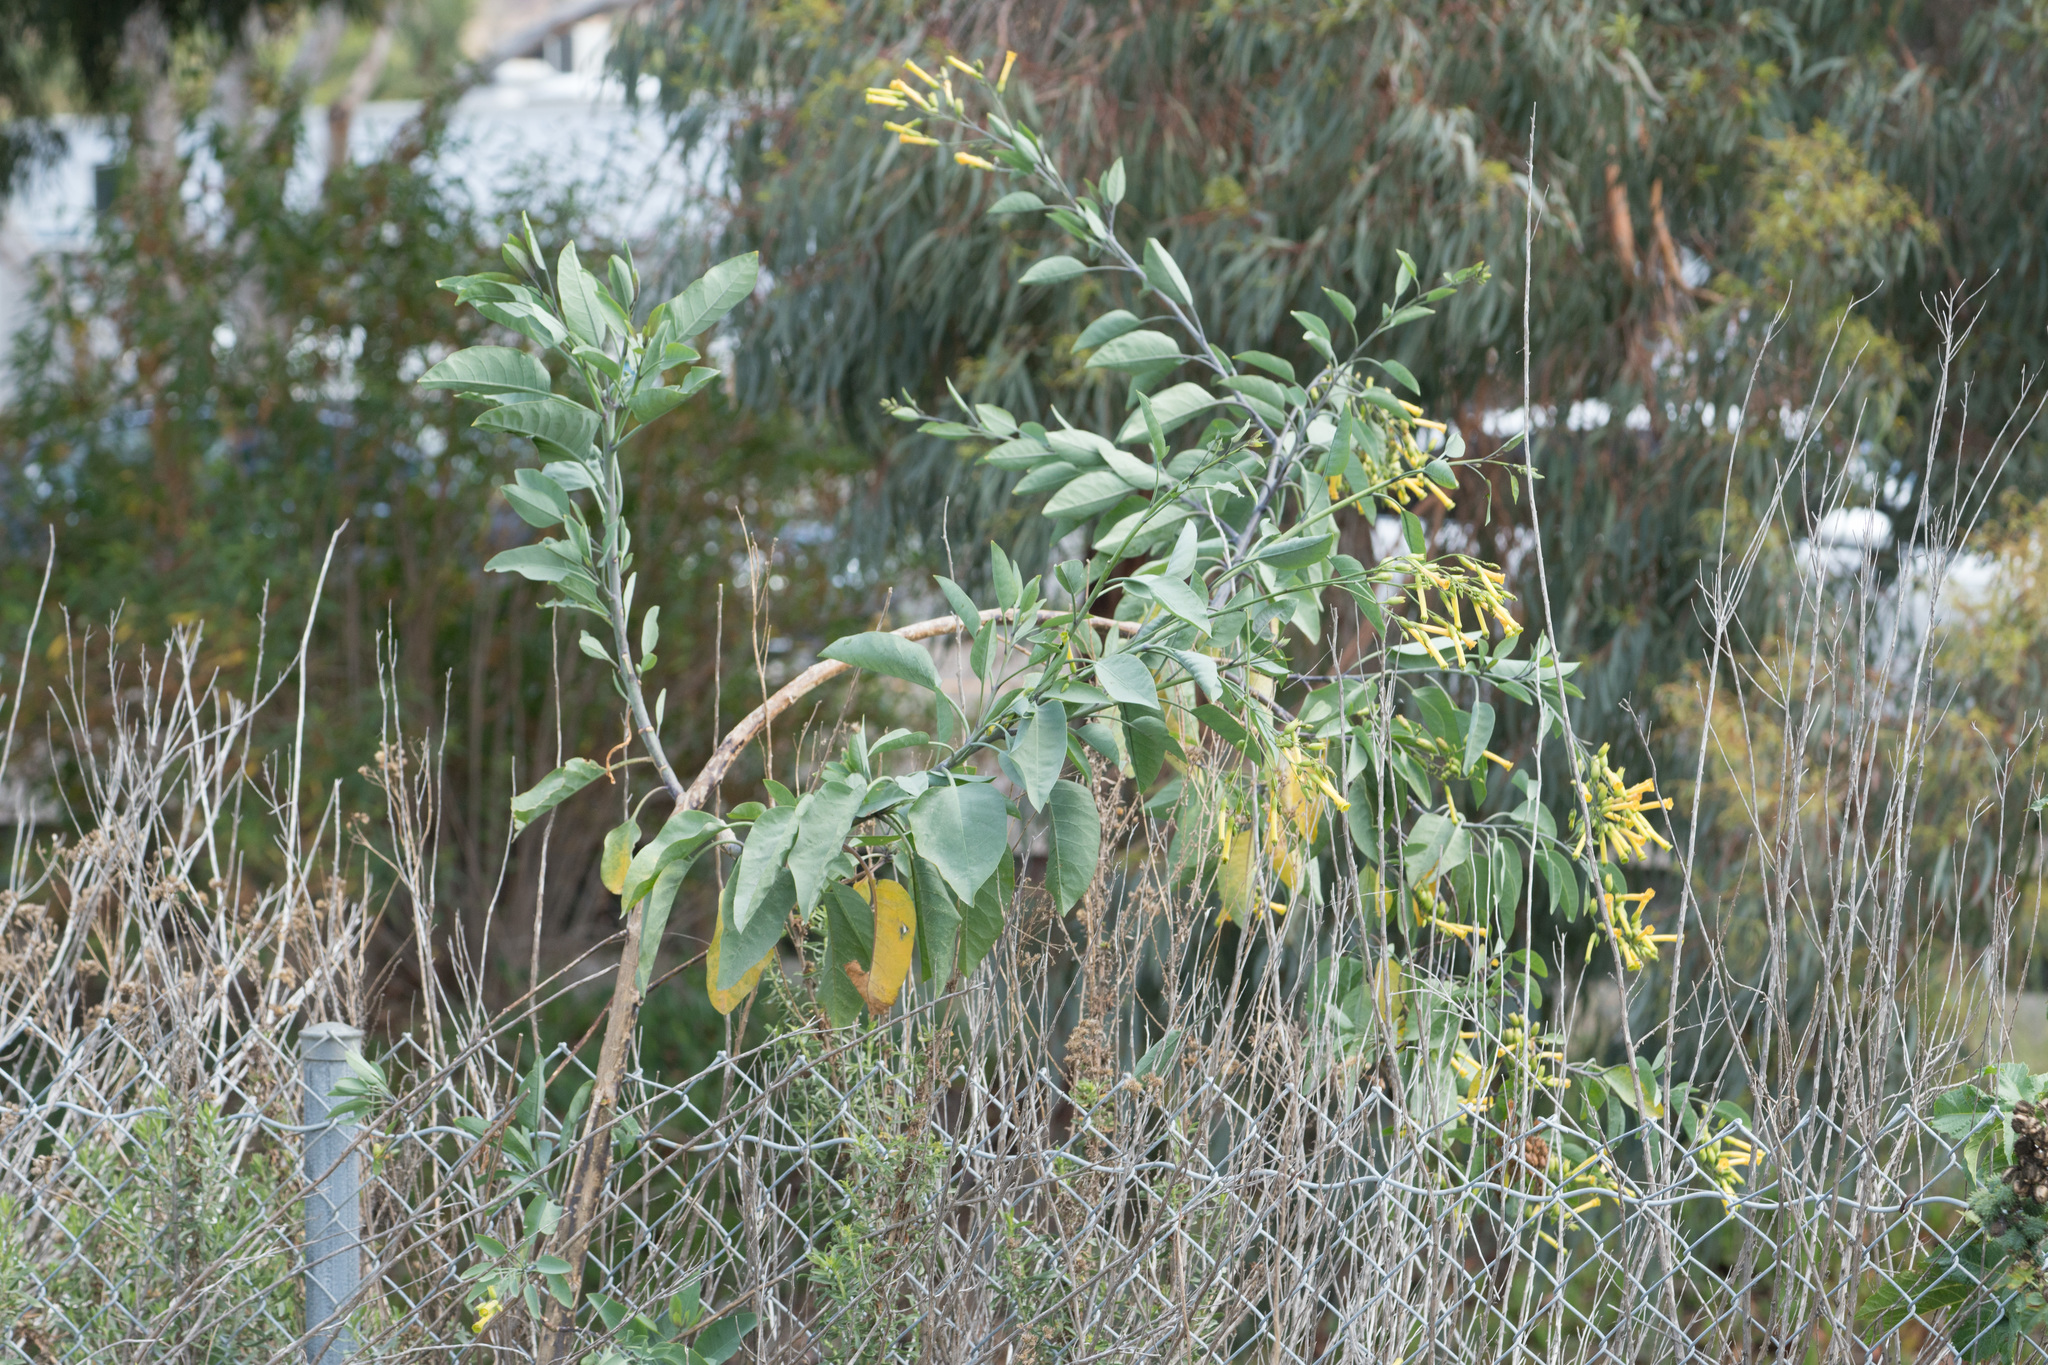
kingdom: Plantae
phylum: Tracheophyta
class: Magnoliopsida
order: Solanales
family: Solanaceae
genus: Nicotiana
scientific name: Nicotiana glauca
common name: Tree tobacco
